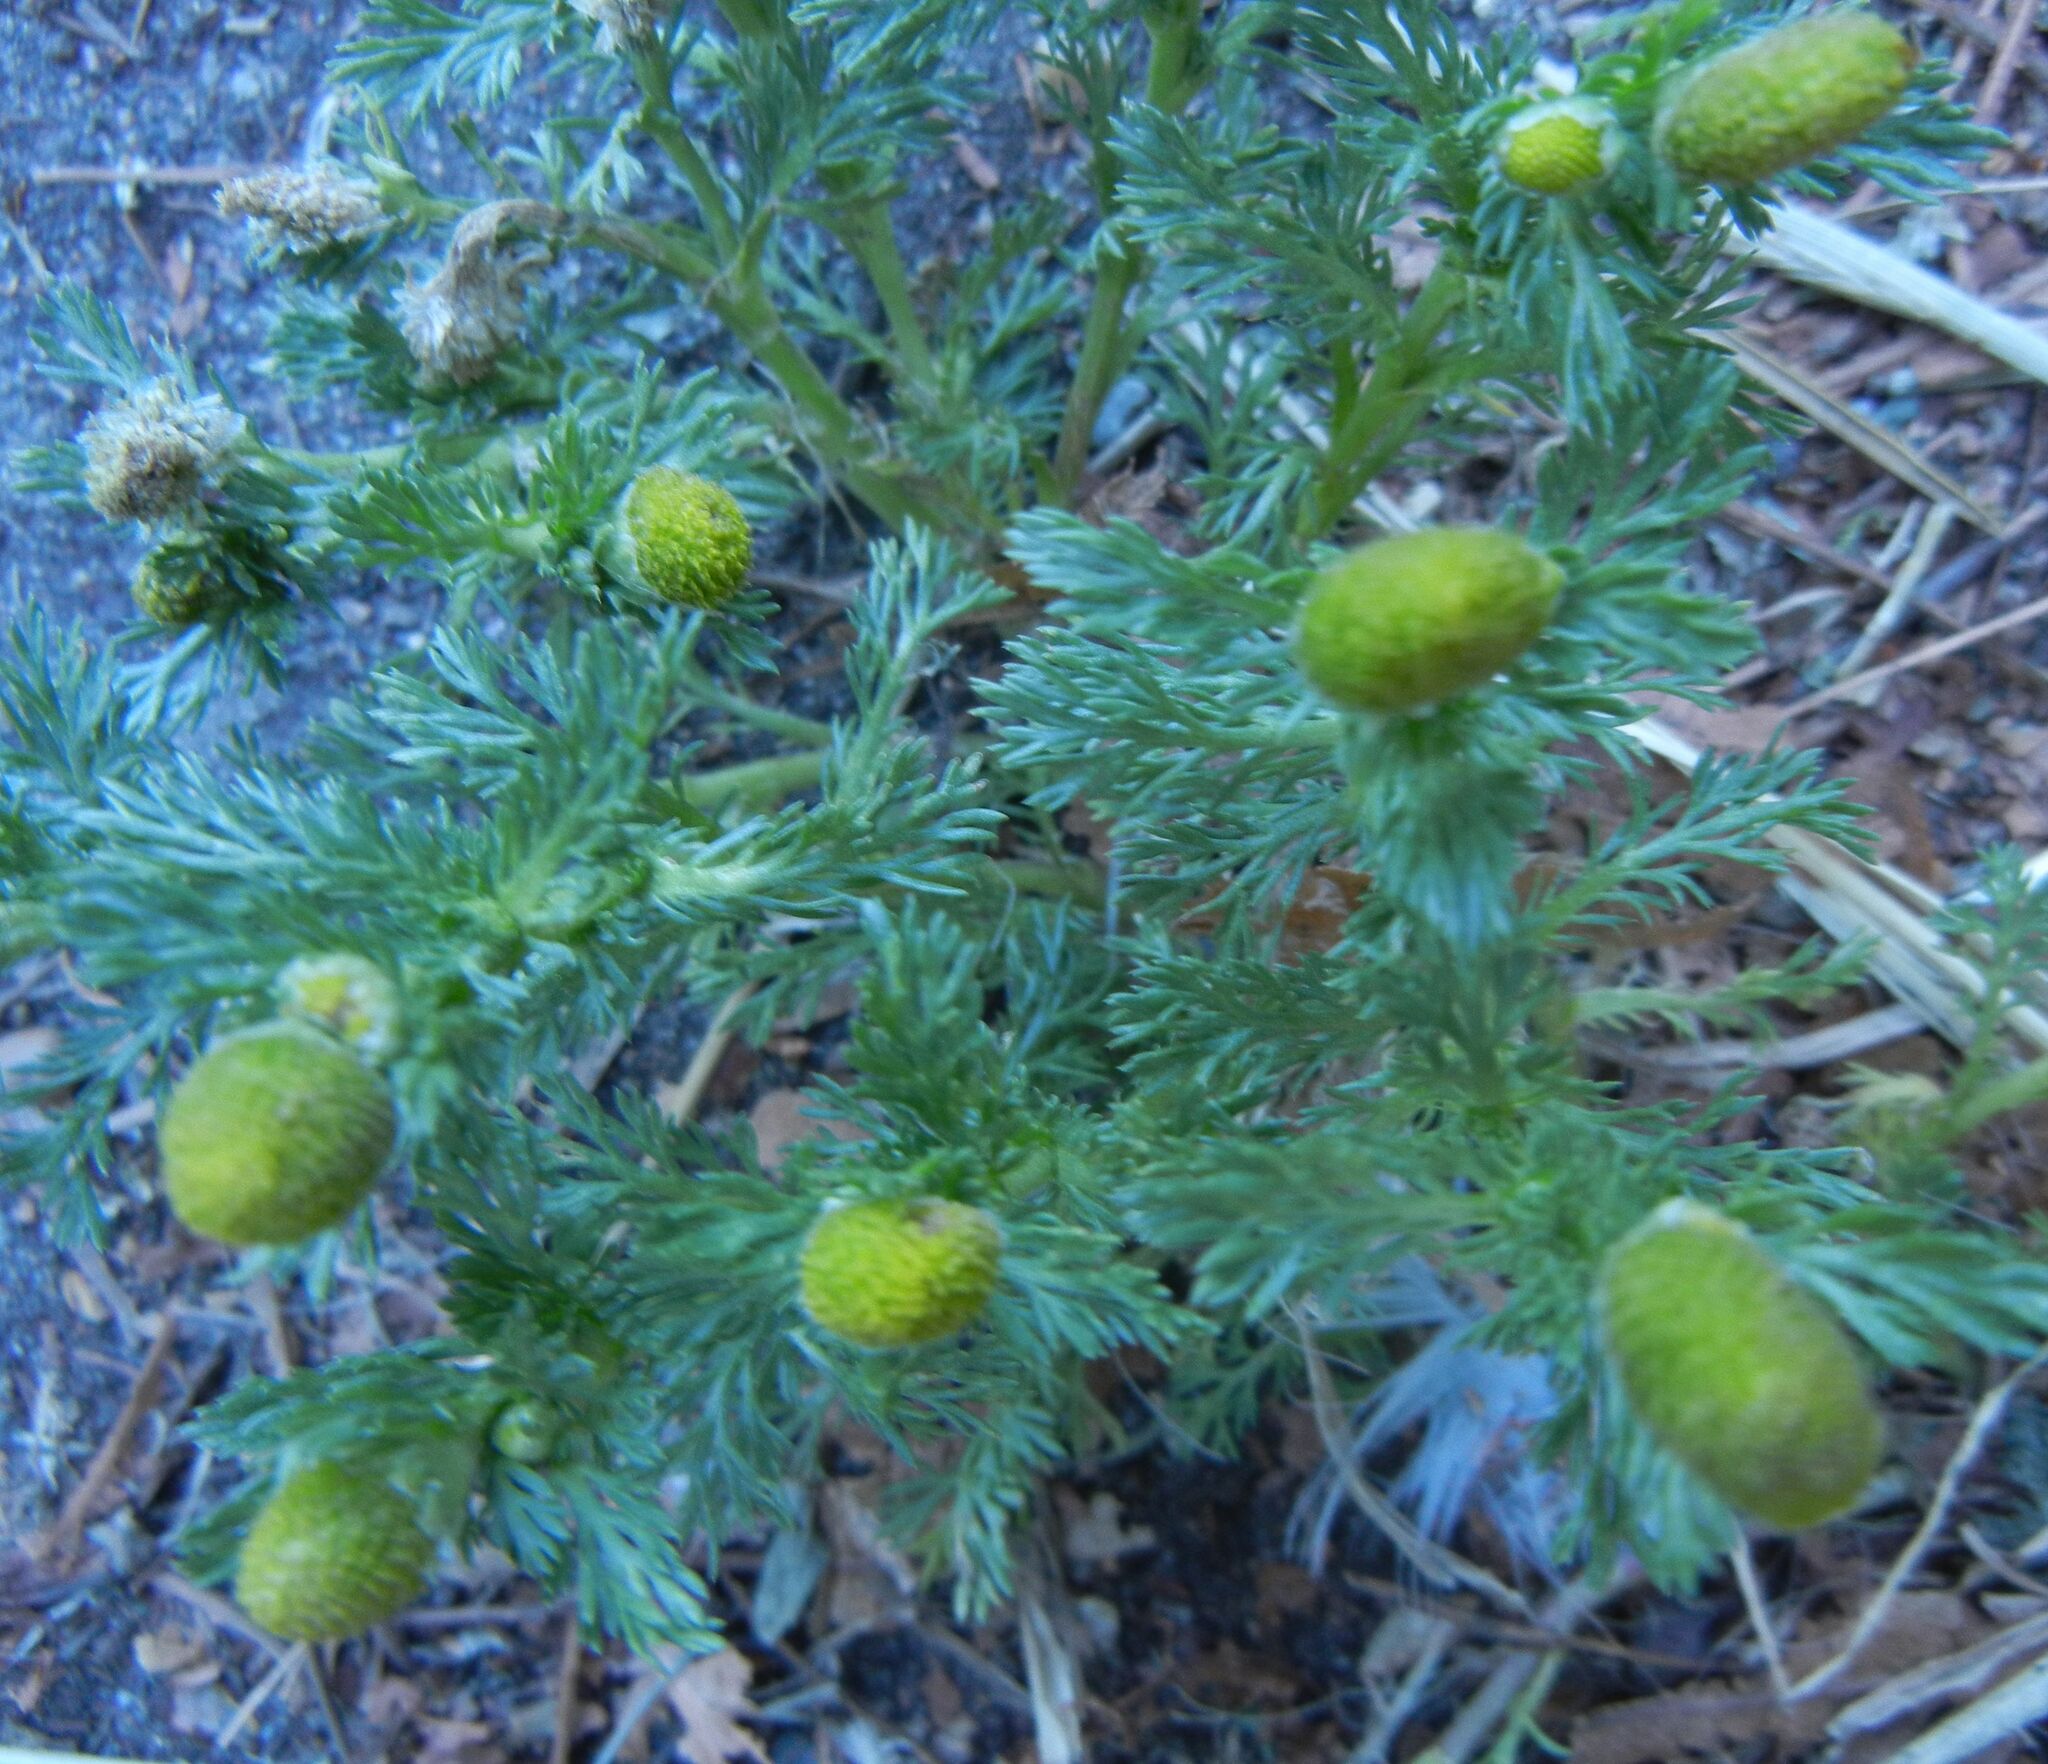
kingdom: Plantae
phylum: Tracheophyta
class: Magnoliopsida
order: Asterales
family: Asteraceae
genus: Matricaria
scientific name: Matricaria discoidea
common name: Disc mayweed
